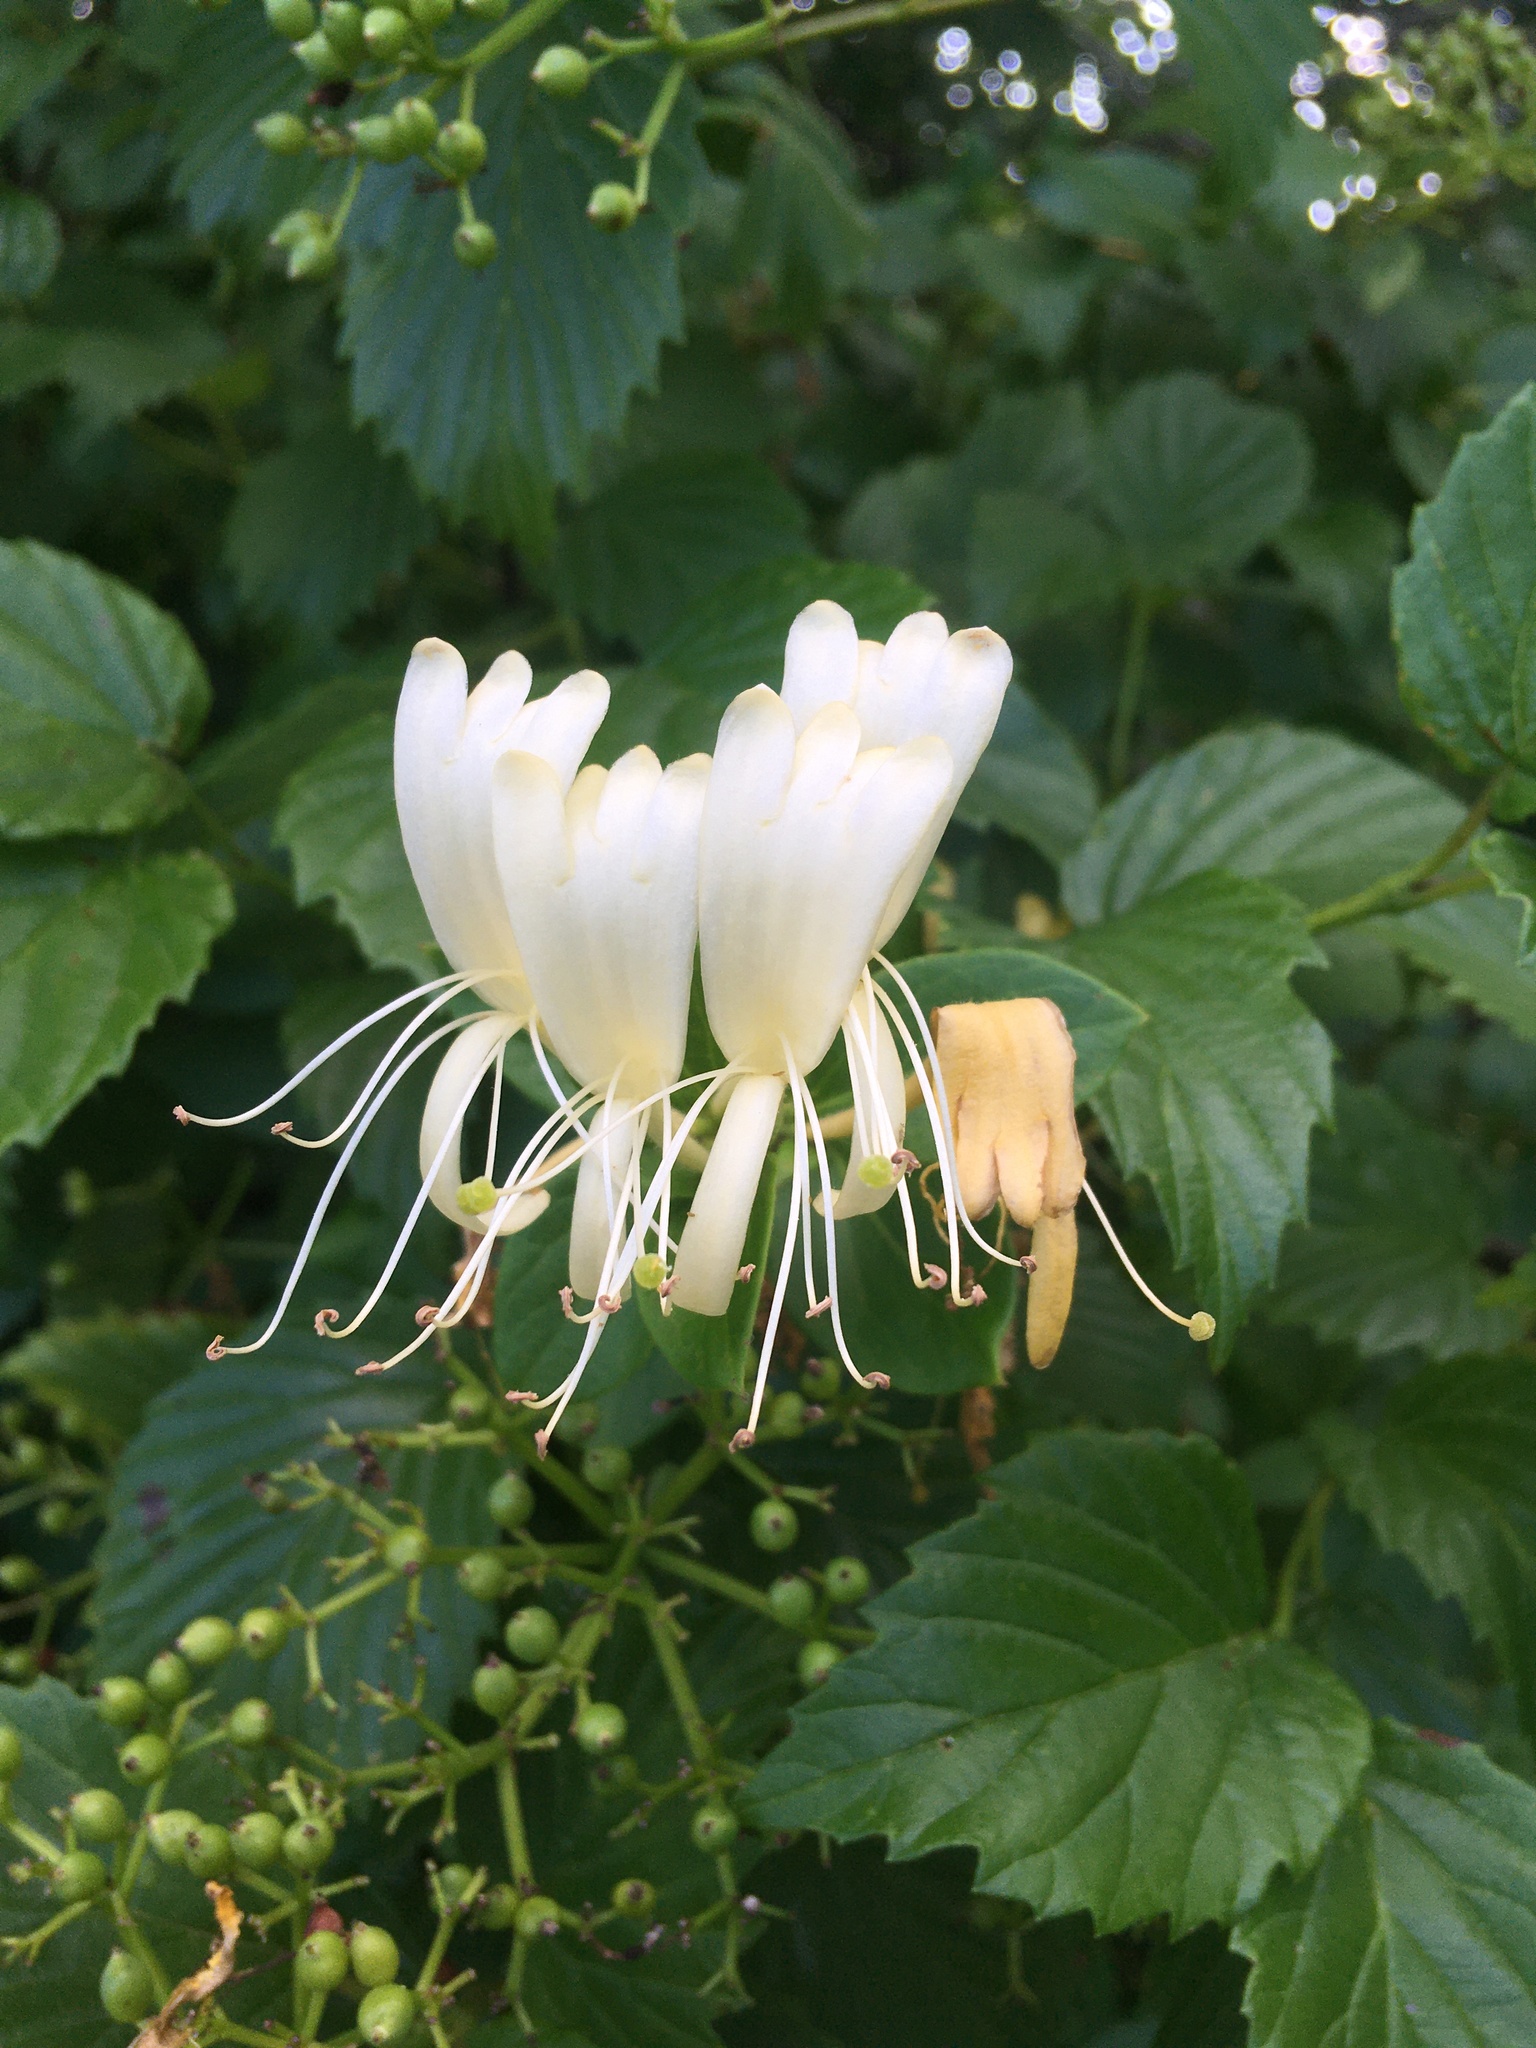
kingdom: Plantae
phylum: Tracheophyta
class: Magnoliopsida
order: Dipsacales
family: Caprifoliaceae
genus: Lonicera
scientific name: Lonicera japonica
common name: Japanese honeysuckle
